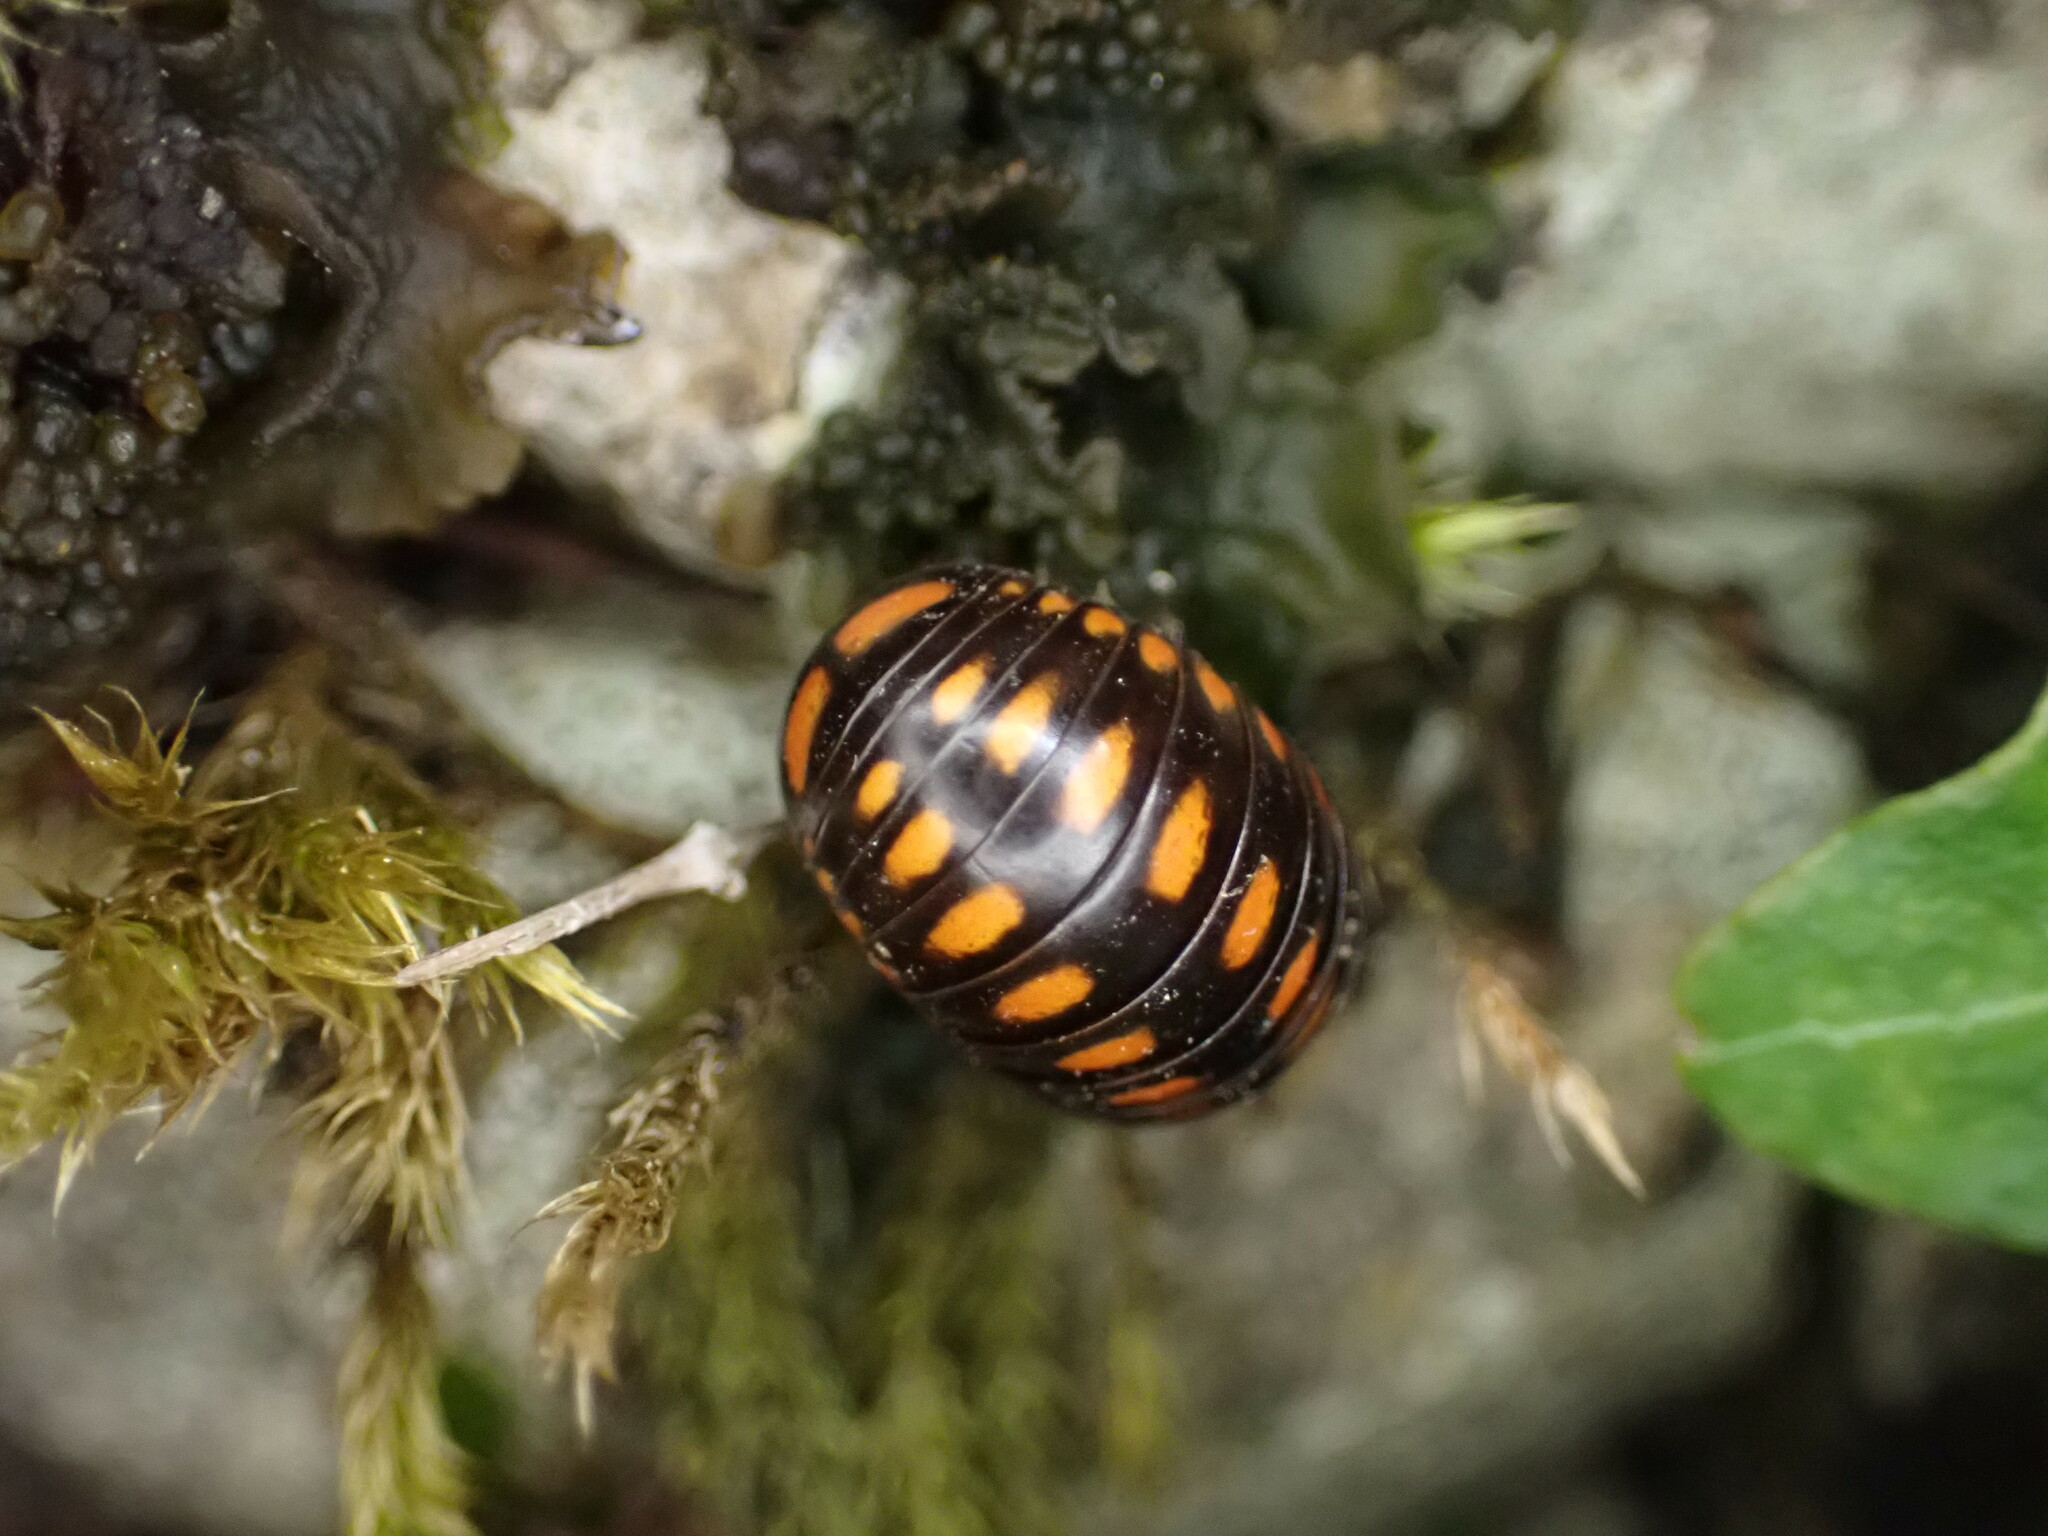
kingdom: Animalia
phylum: Arthropoda
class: Diplopoda
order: Glomerida
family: Glomeridae
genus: Glomeris
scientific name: Glomeris guttata
